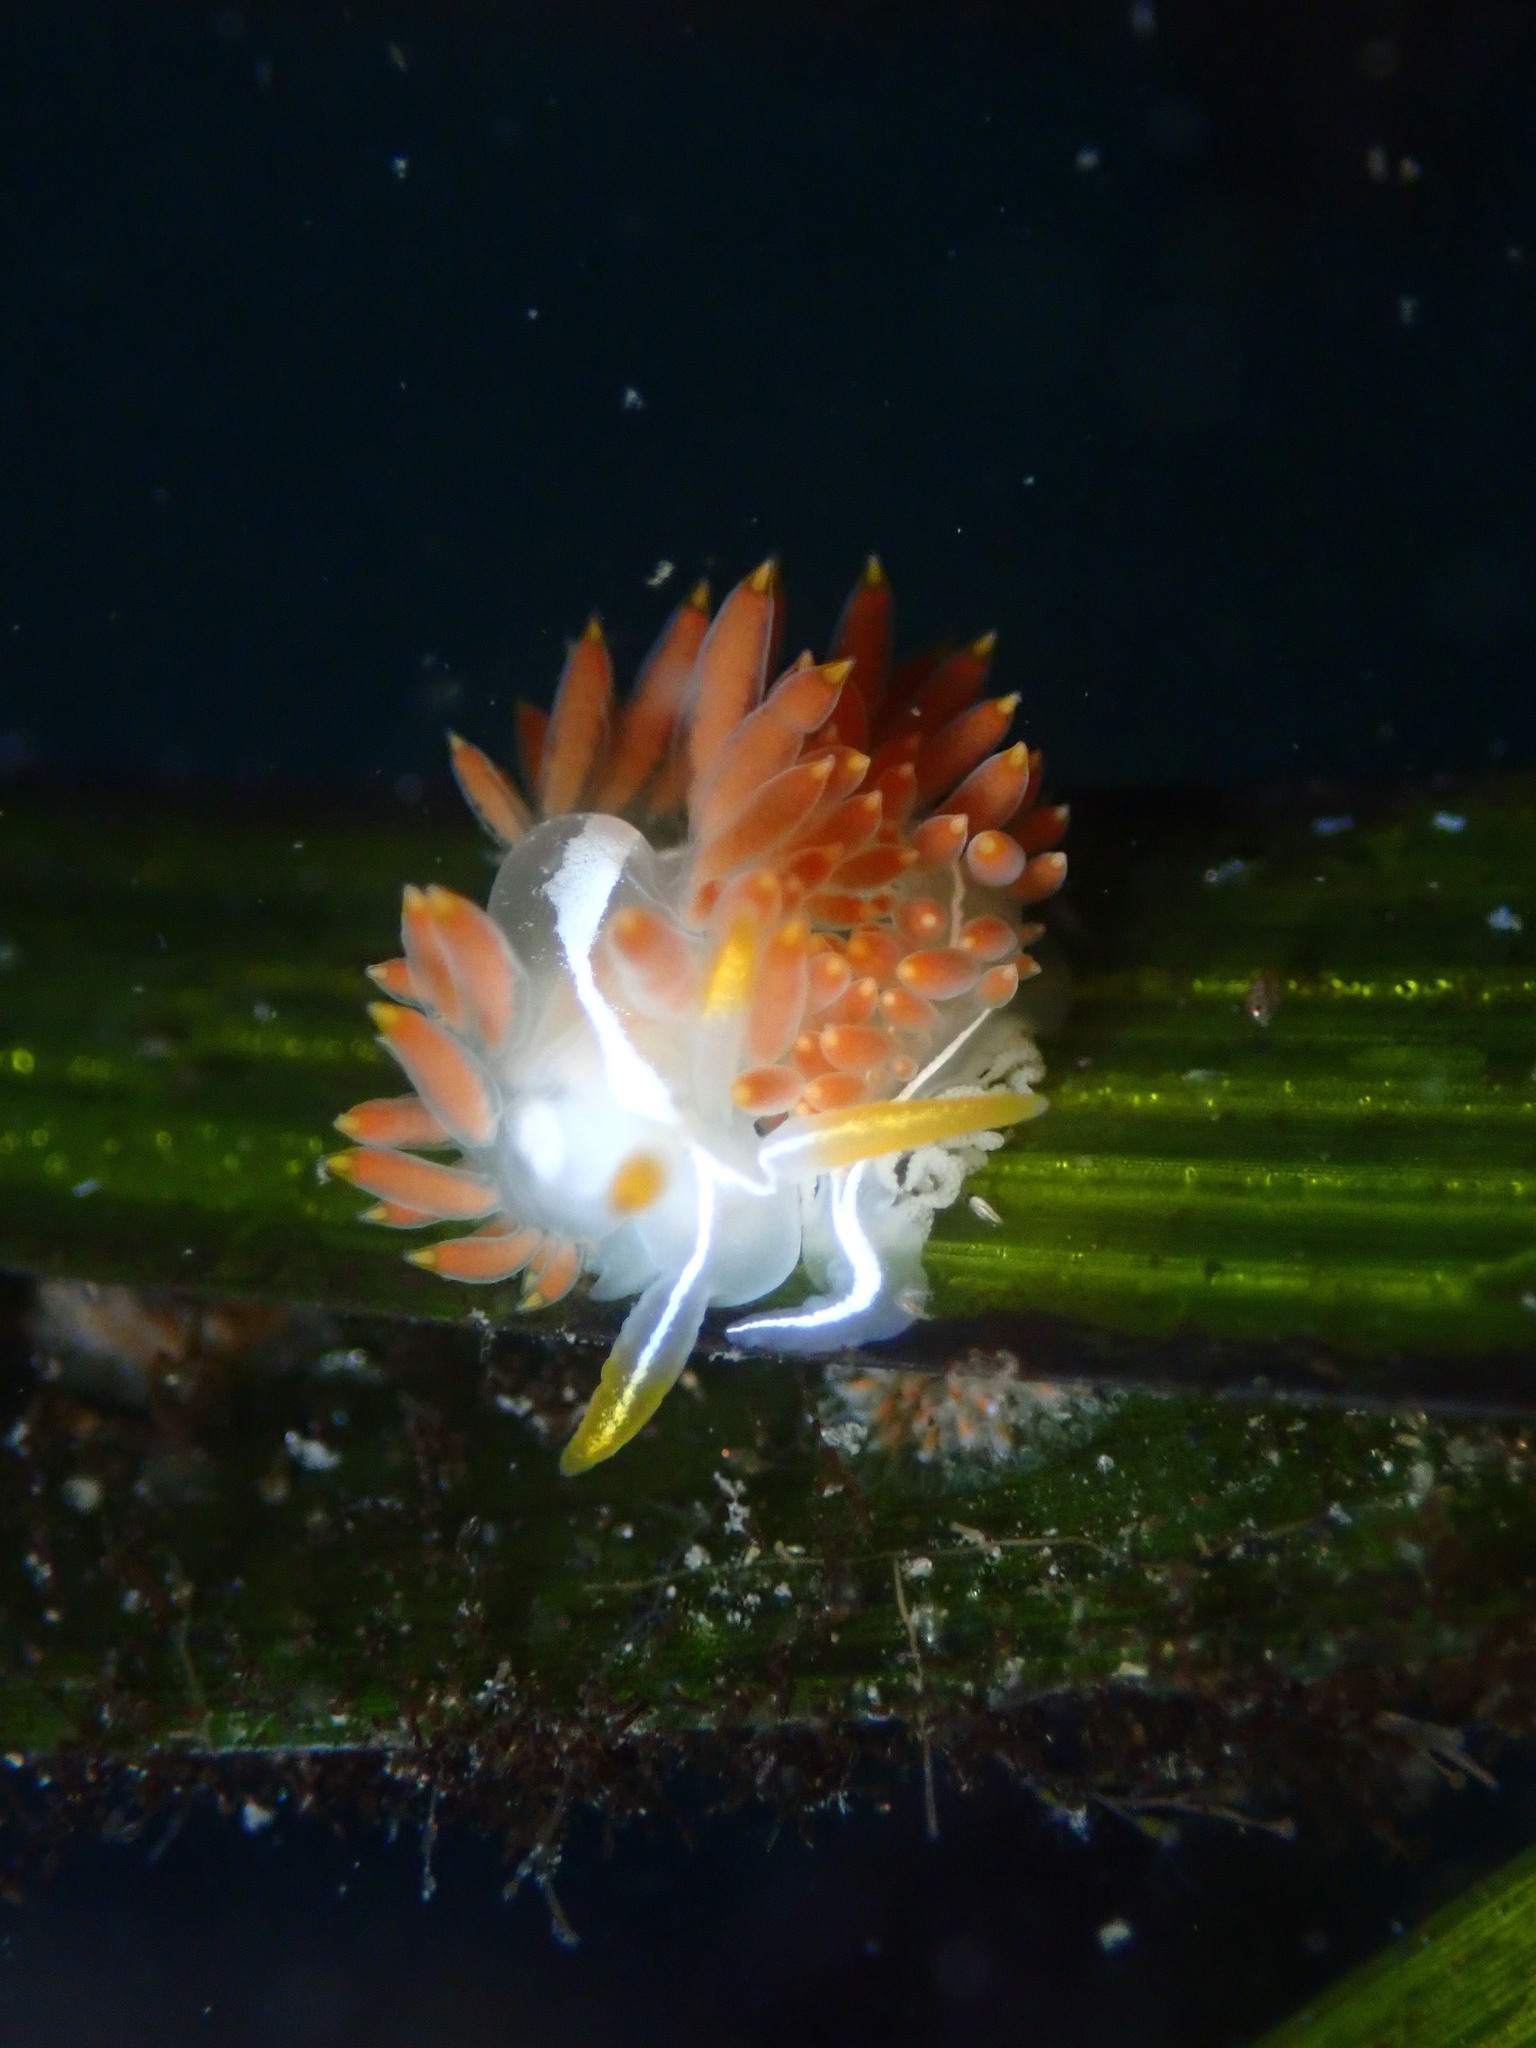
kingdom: Animalia
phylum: Mollusca
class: Gastropoda
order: Nudibranchia
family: Coryphellidae
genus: Coryphella
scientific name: Coryphella trilineata
